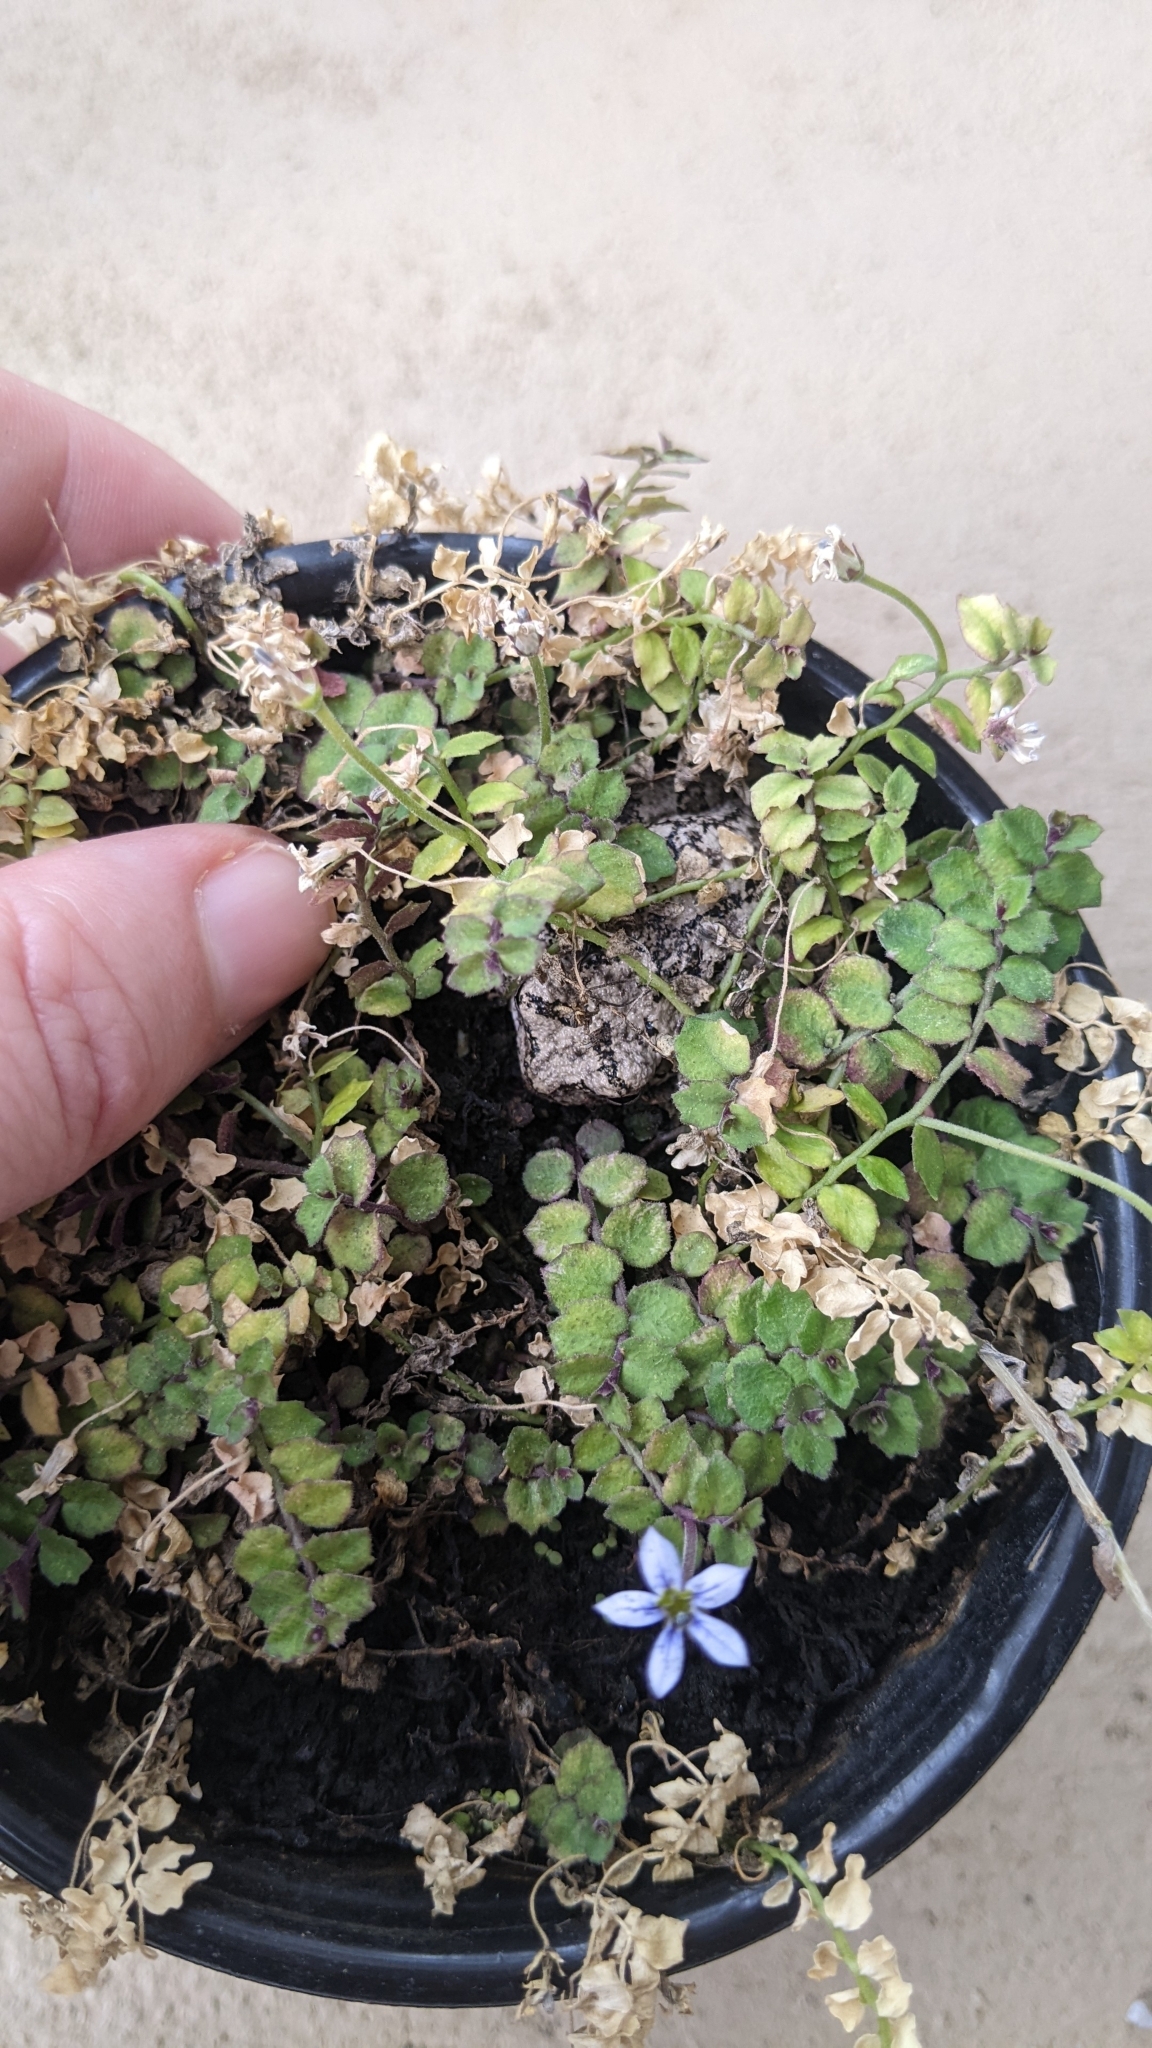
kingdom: Animalia
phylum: Chordata
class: Amphibia
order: Anura
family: Hylidae
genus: Dryophytes
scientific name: Dryophytes versicolor
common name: Gray treefrog
